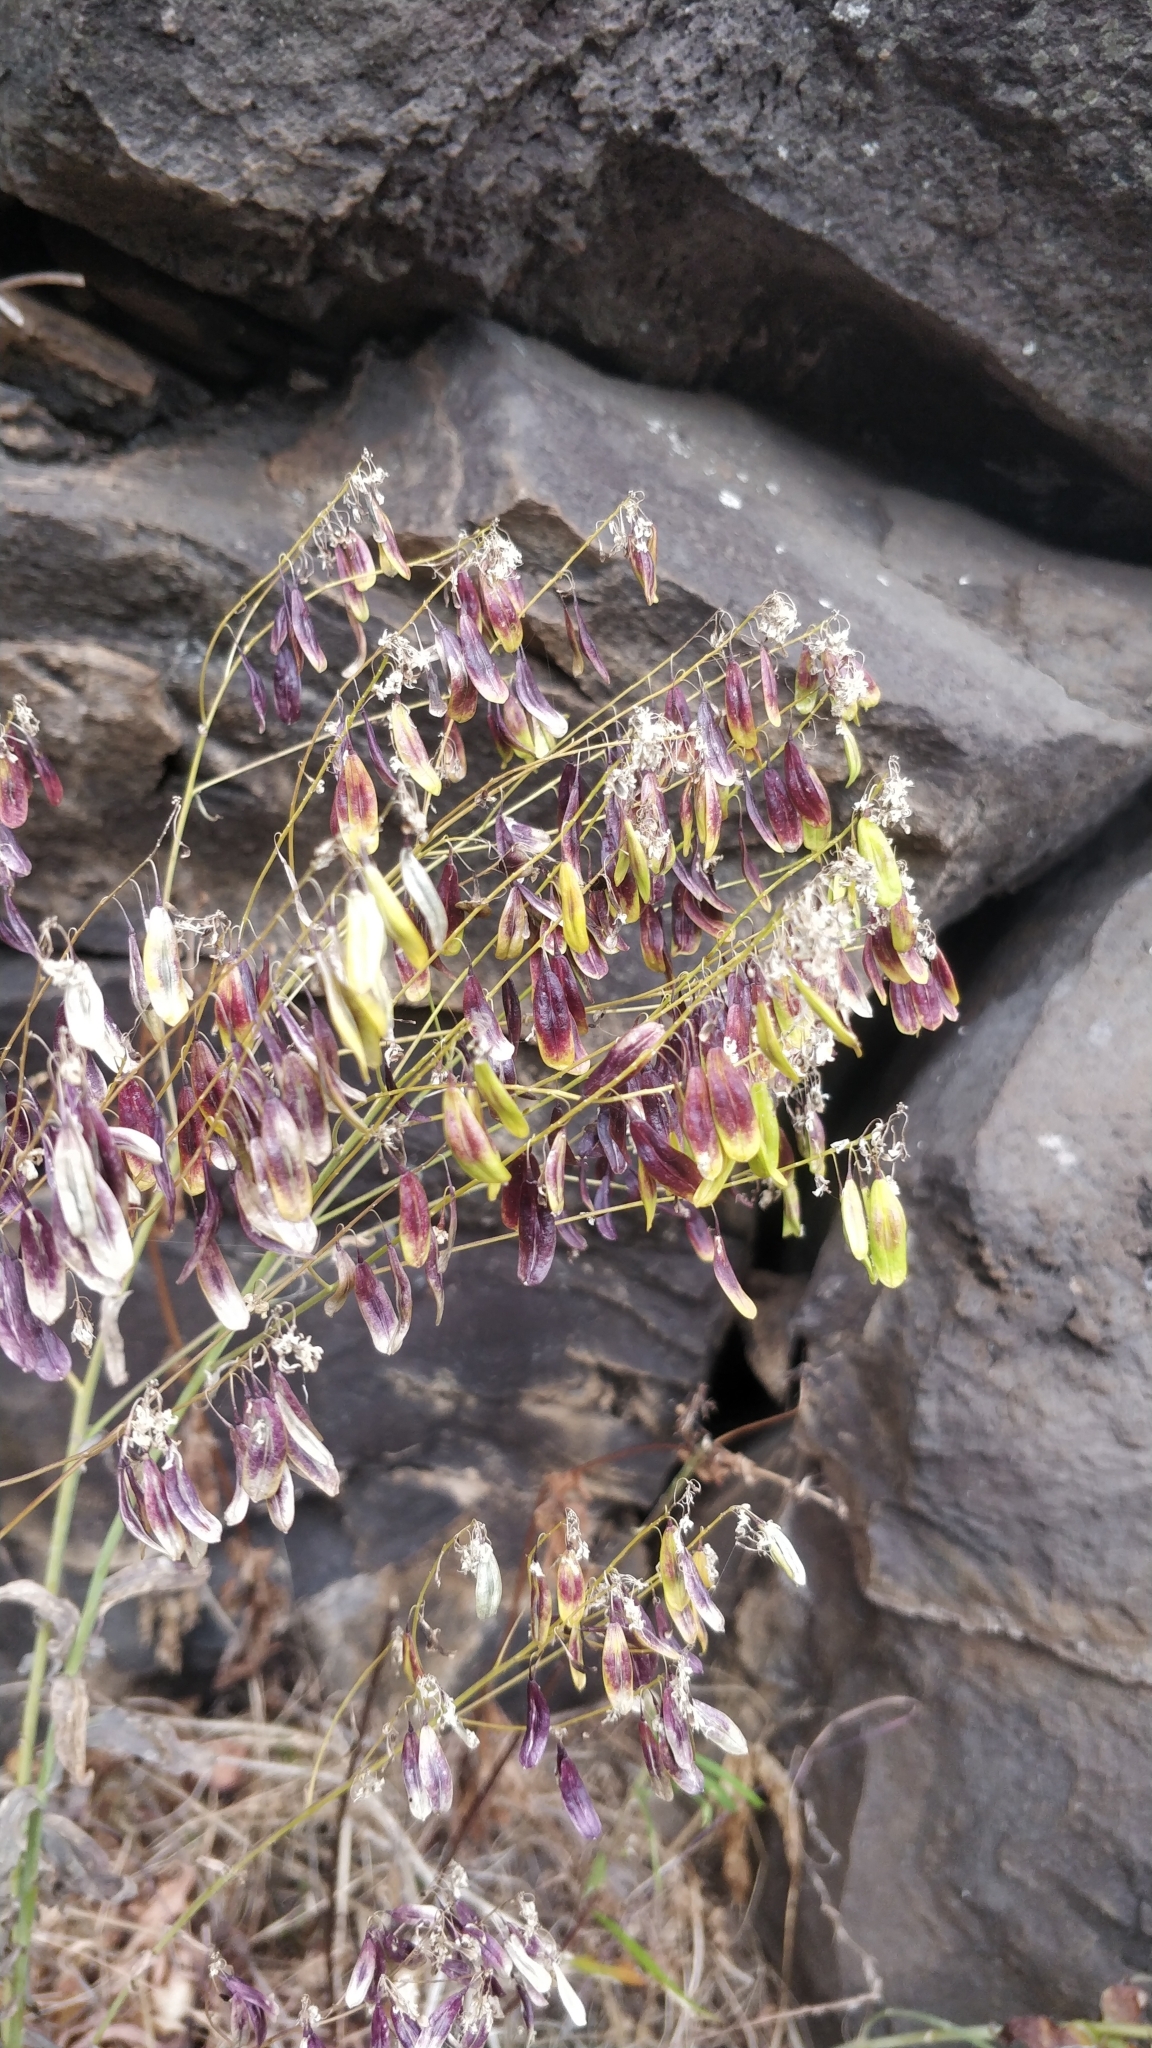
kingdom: Plantae
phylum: Tracheophyta
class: Magnoliopsida
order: Brassicales
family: Brassicaceae
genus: Isatis
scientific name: Isatis tinctoria
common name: Woad
